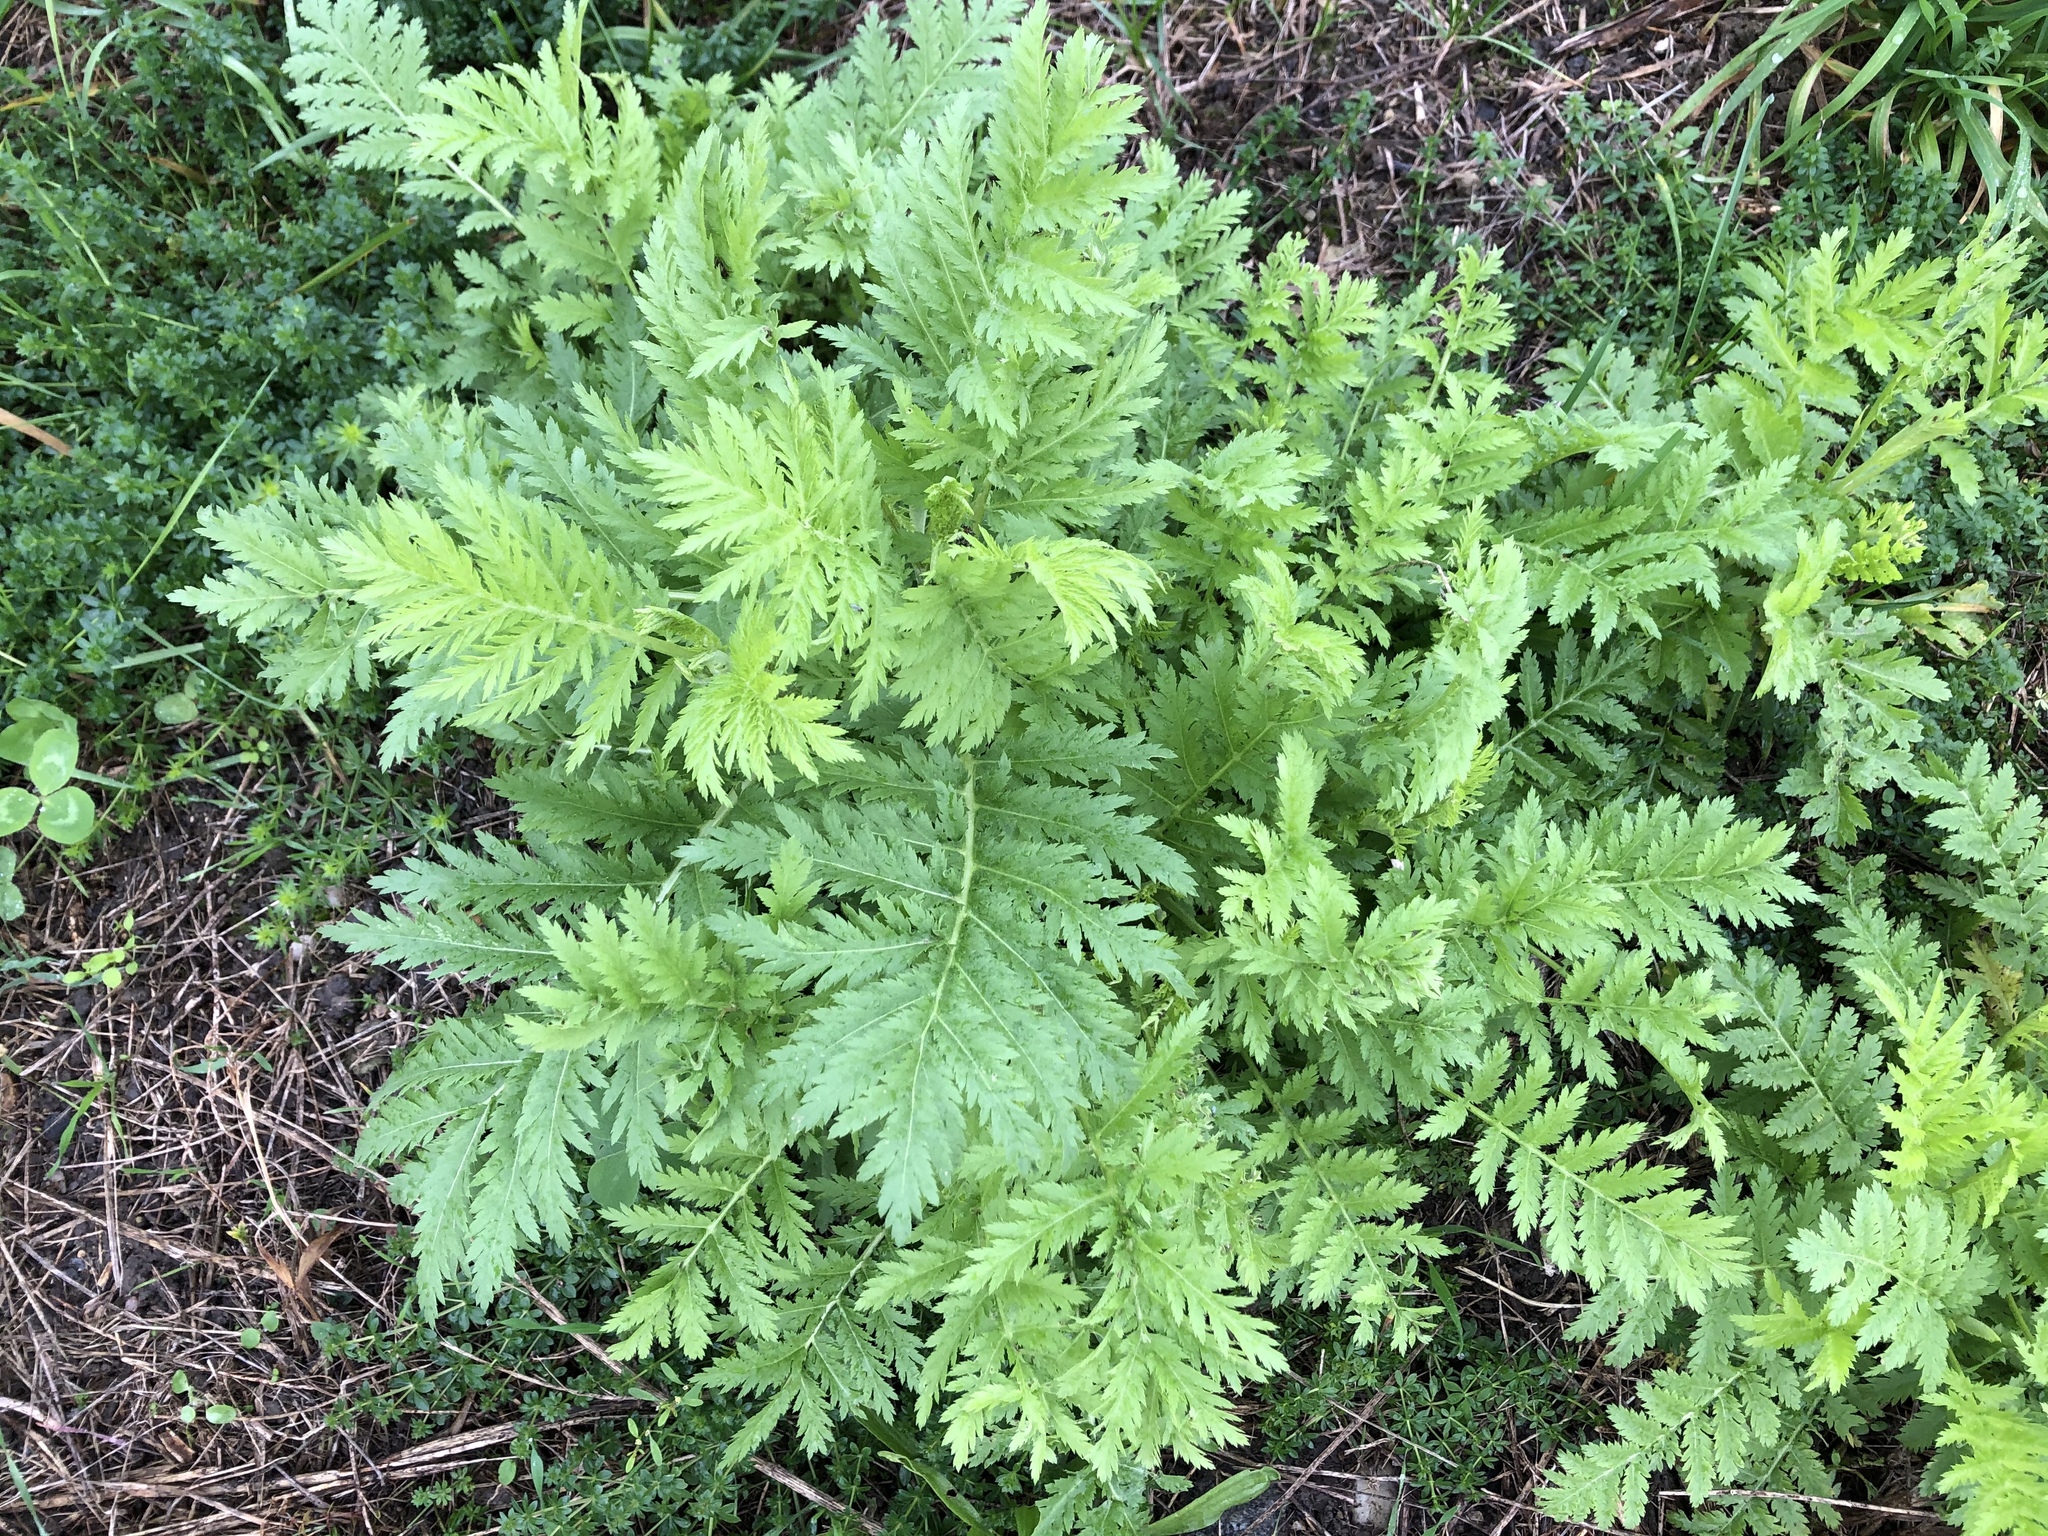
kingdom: Plantae
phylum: Tracheophyta
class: Magnoliopsida
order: Asterales
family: Asteraceae
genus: Tanacetum
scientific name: Tanacetum vulgare
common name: Common tansy
